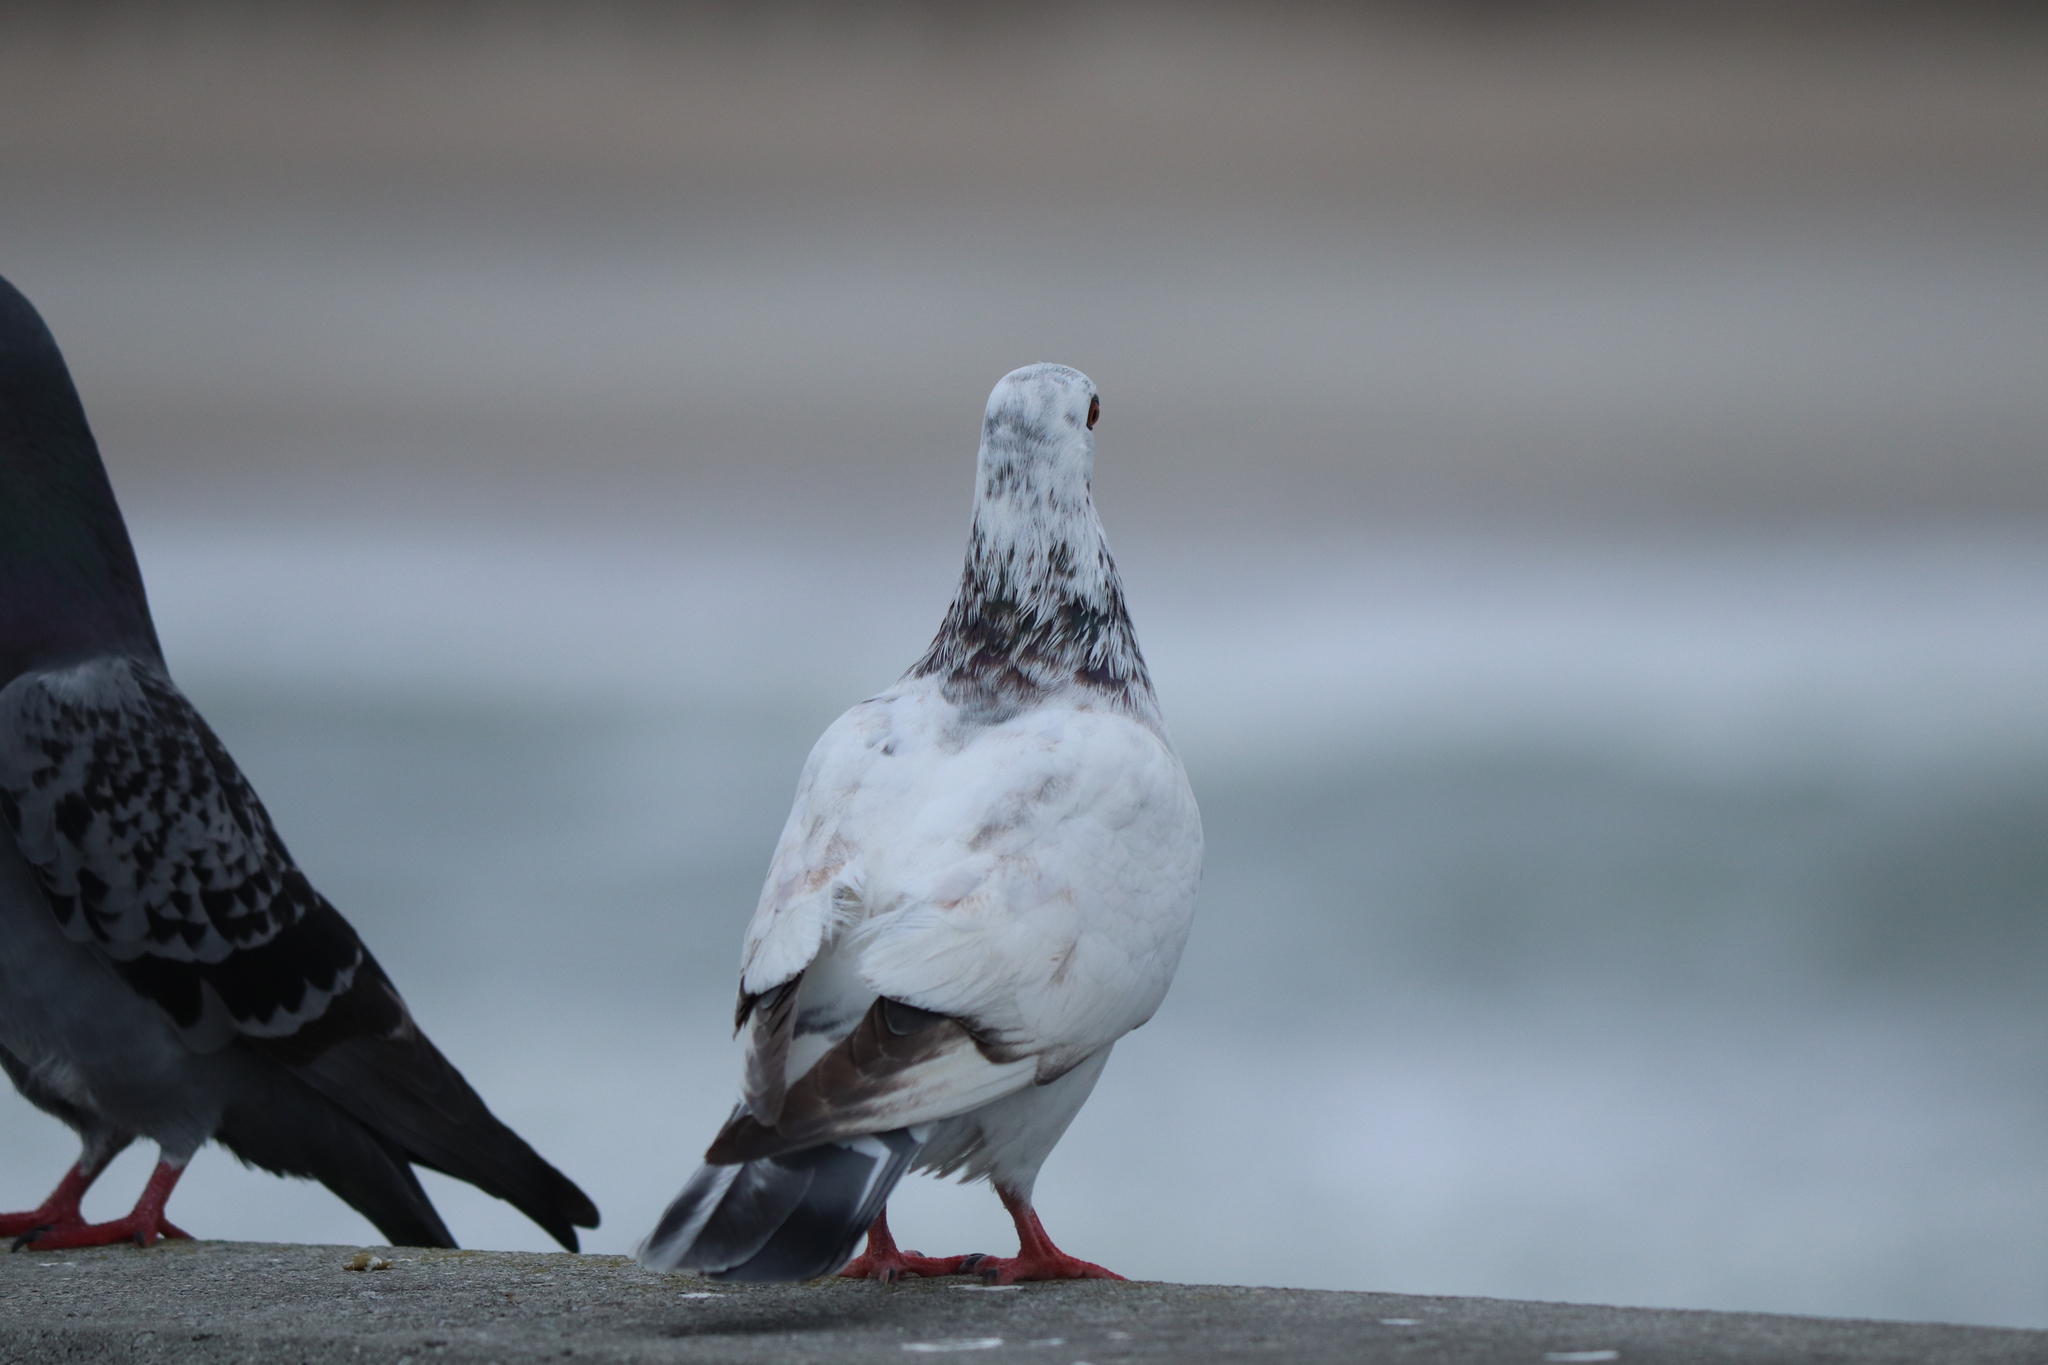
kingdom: Animalia
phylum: Chordata
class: Aves
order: Columbiformes
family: Columbidae
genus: Columba
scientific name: Columba livia
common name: Rock pigeon
